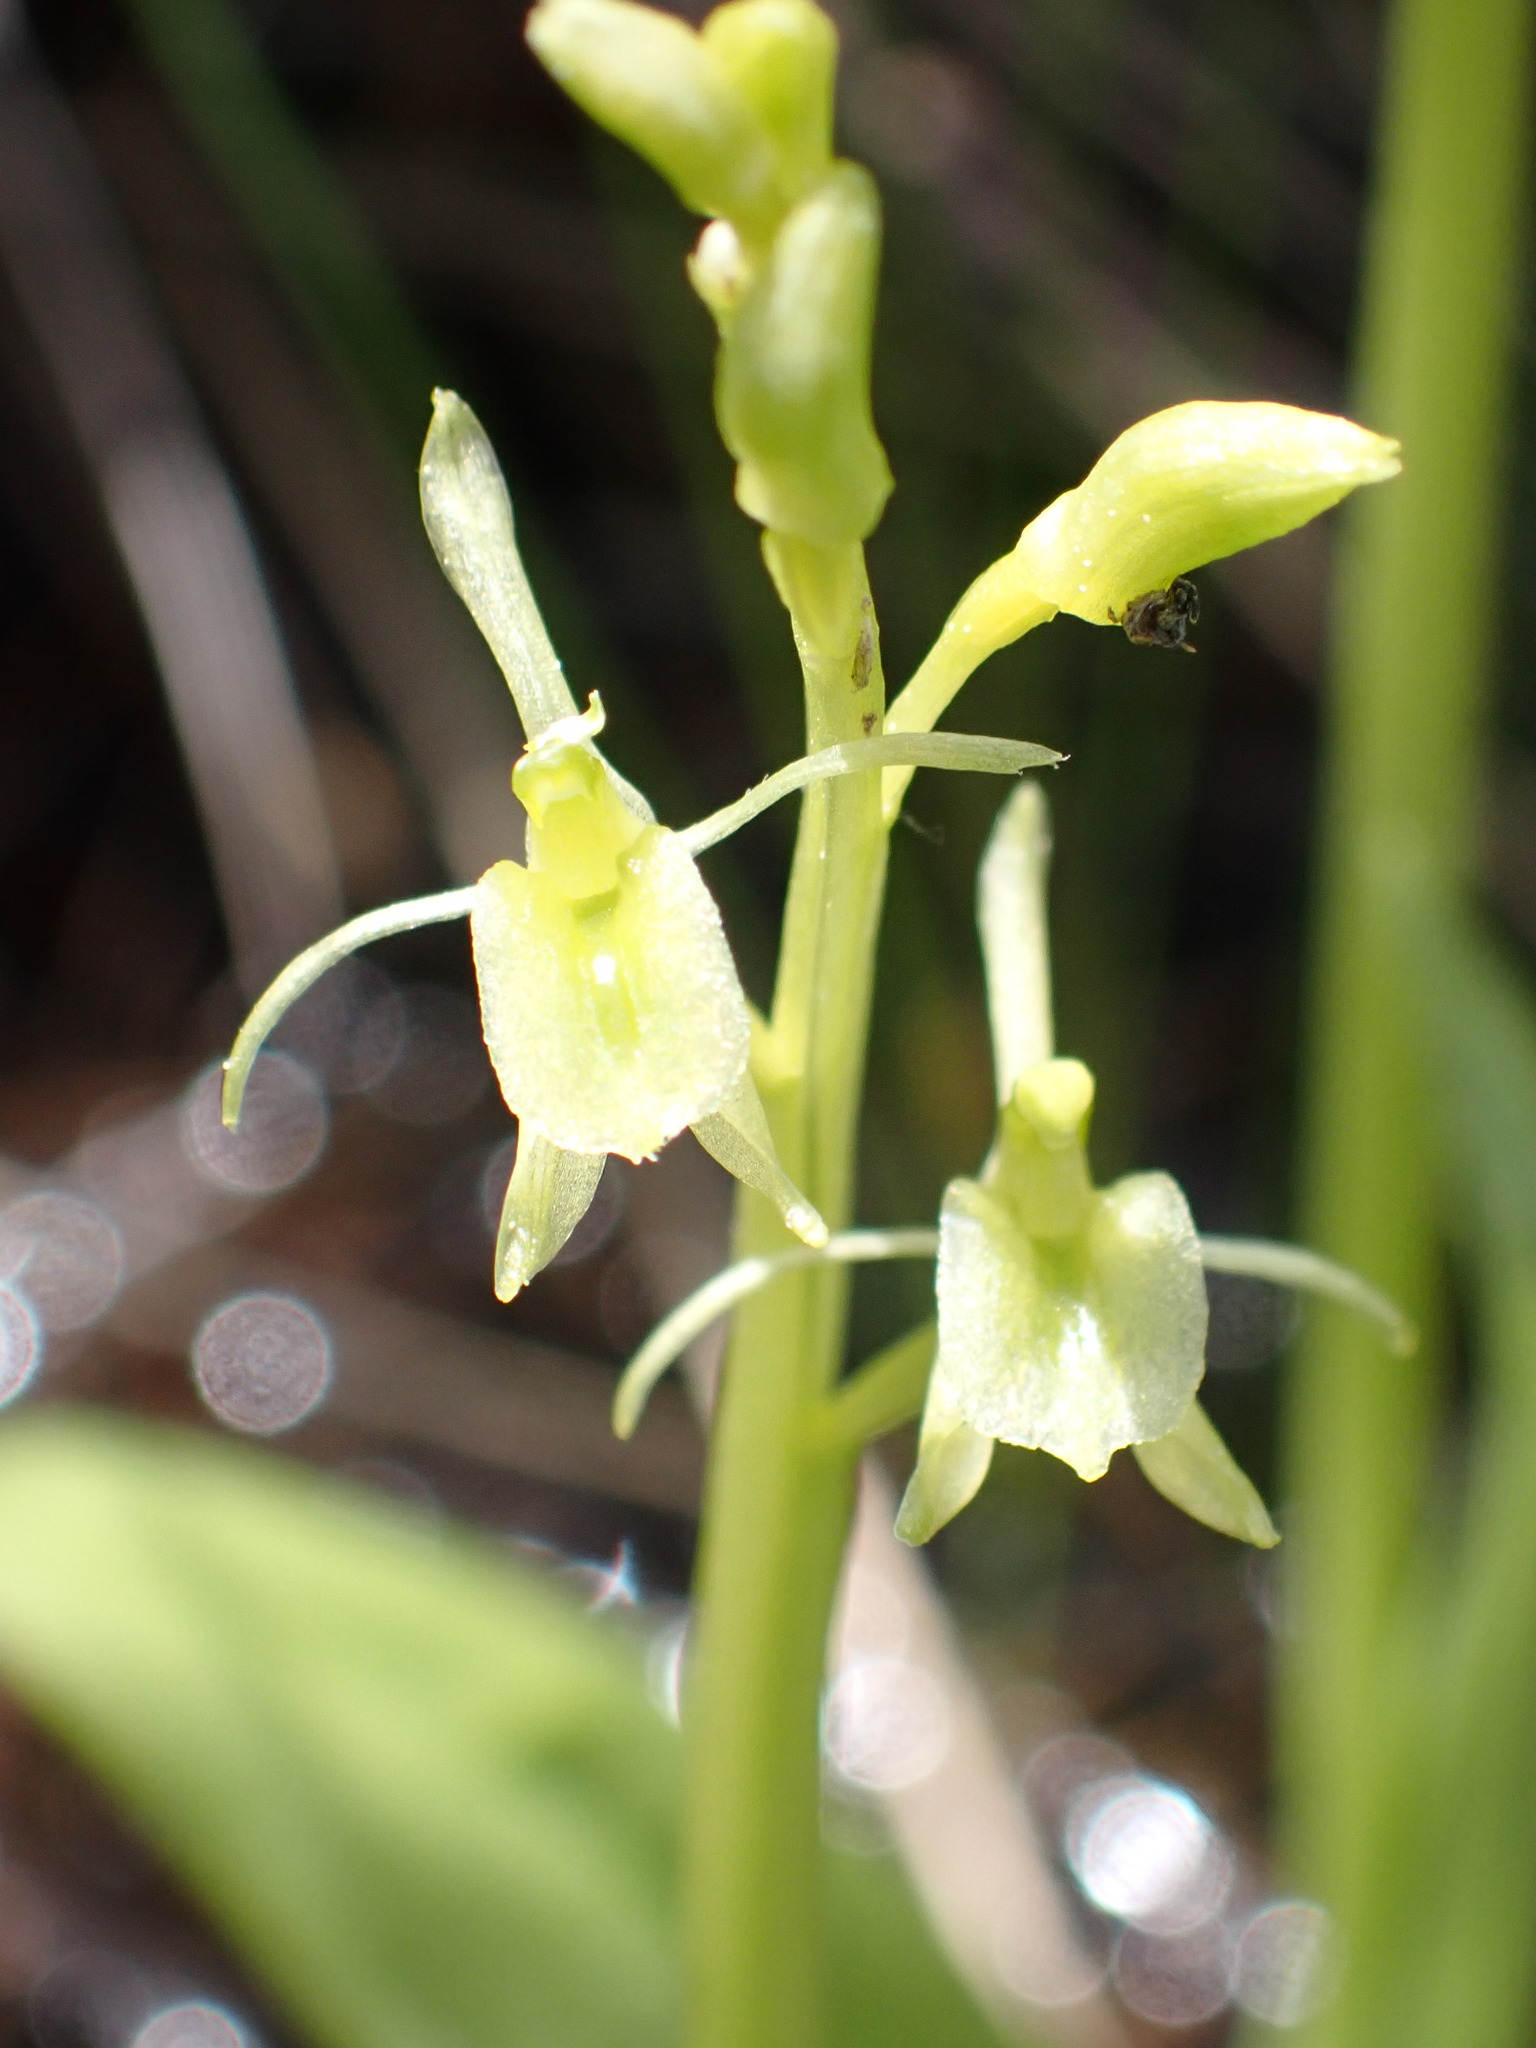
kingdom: Animalia
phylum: Arthropoda
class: Insecta
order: Coleoptera
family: Curculionidae
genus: Liparis
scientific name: Liparis loeselii
